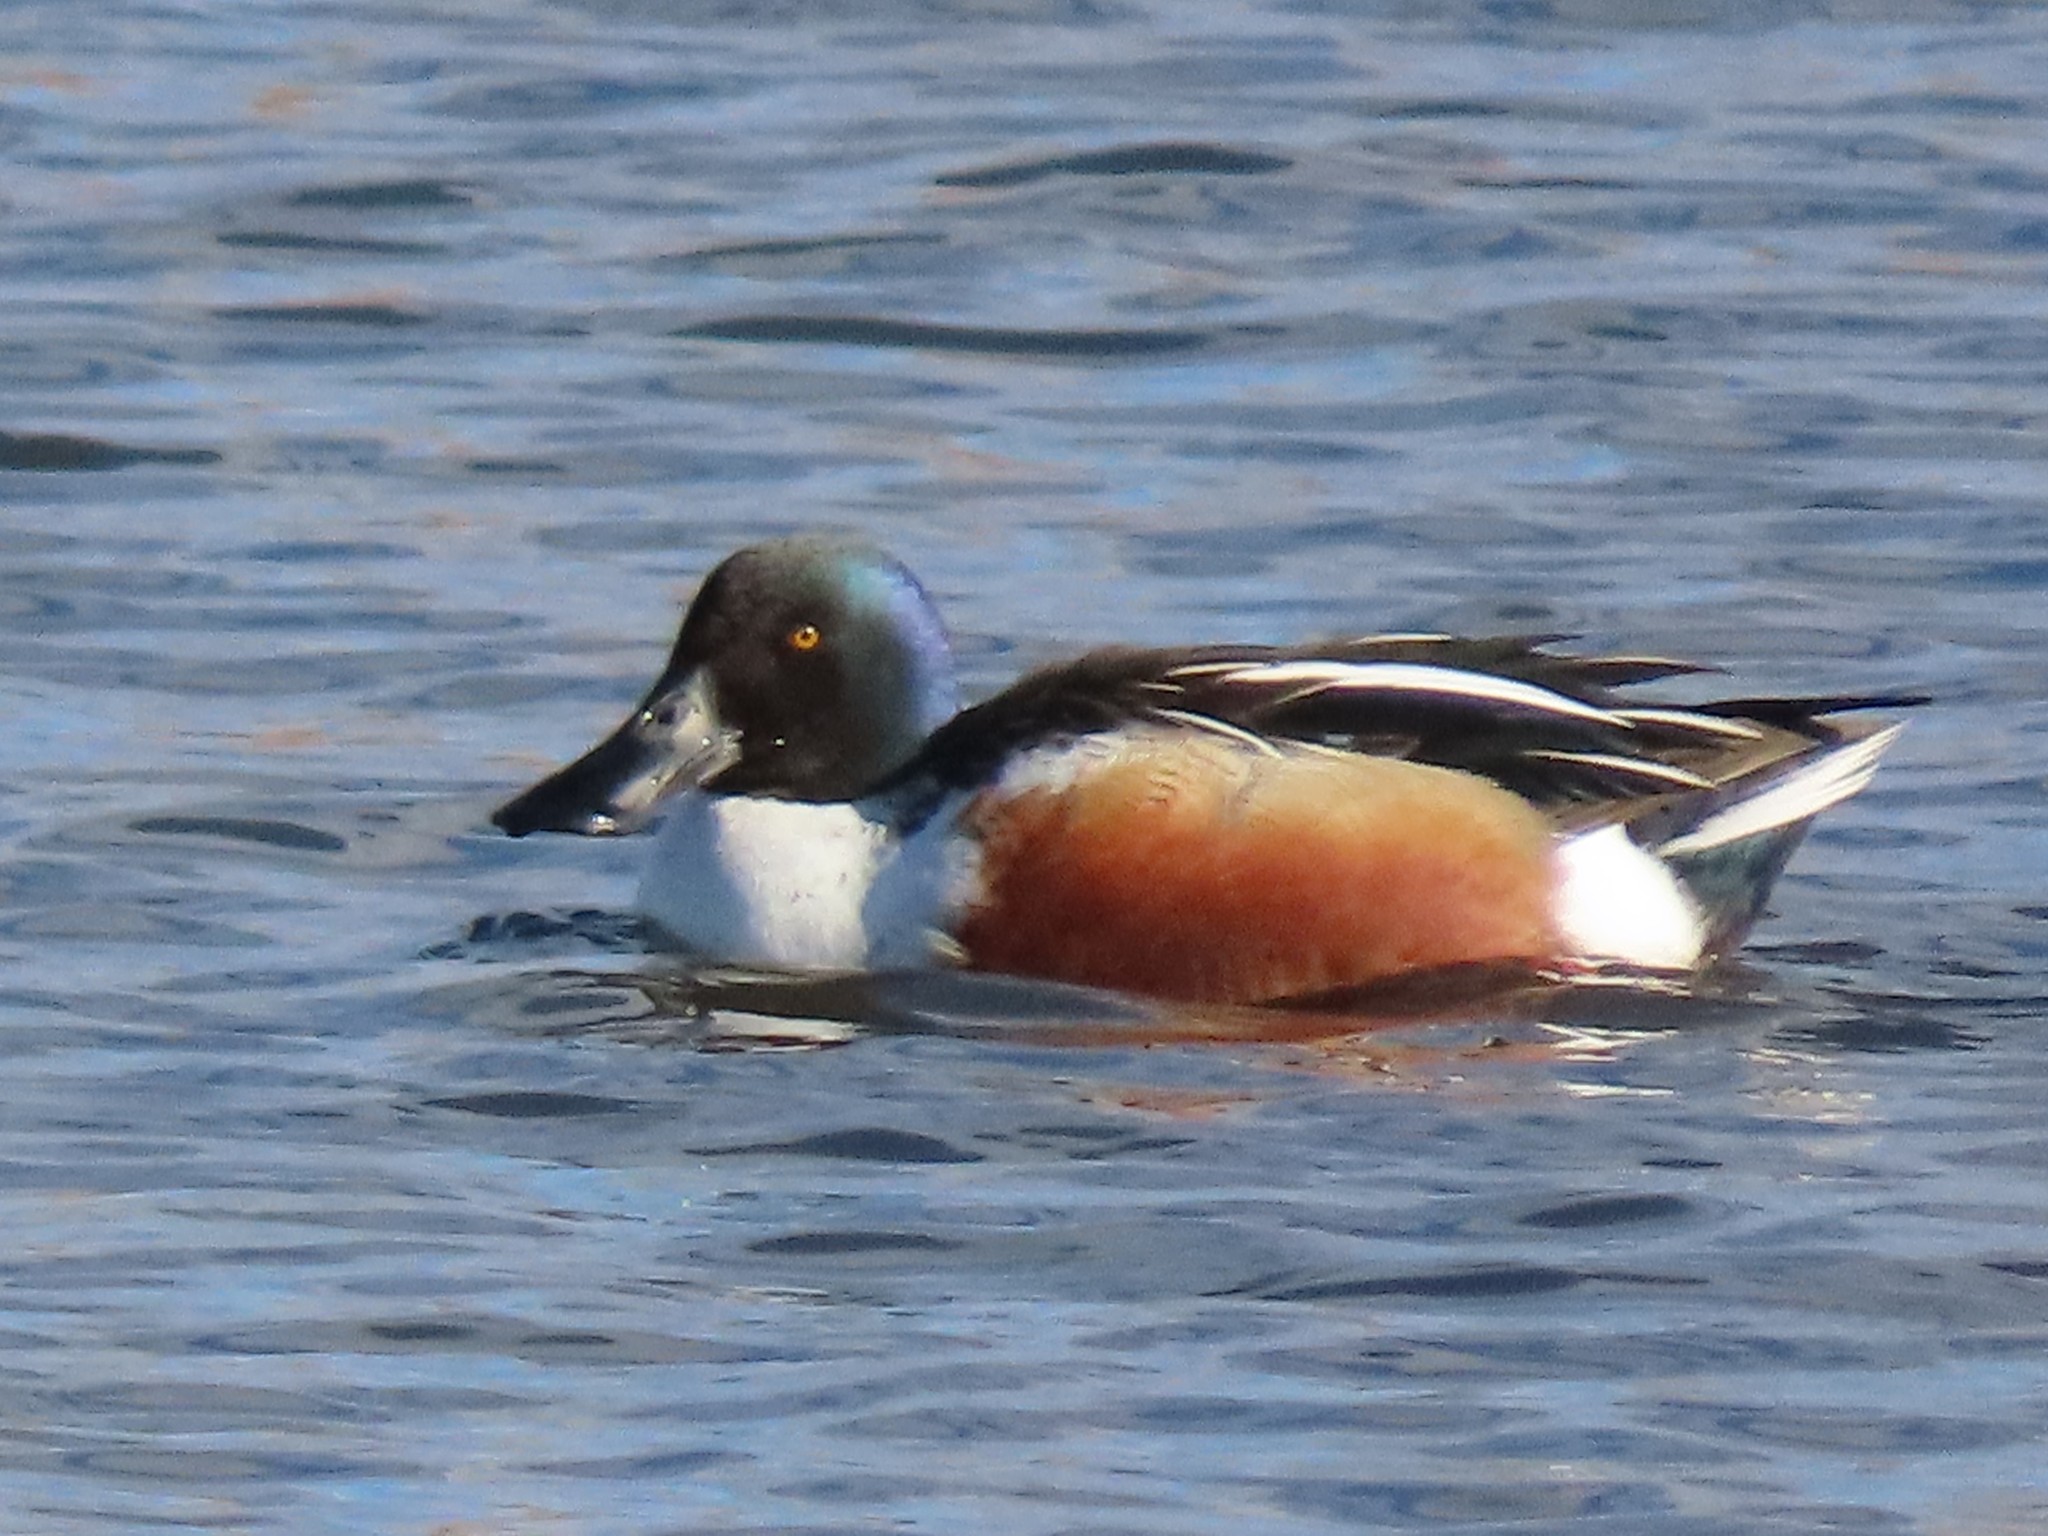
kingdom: Animalia
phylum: Chordata
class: Aves
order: Anseriformes
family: Anatidae
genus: Spatula
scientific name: Spatula clypeata
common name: Northern shoveler
